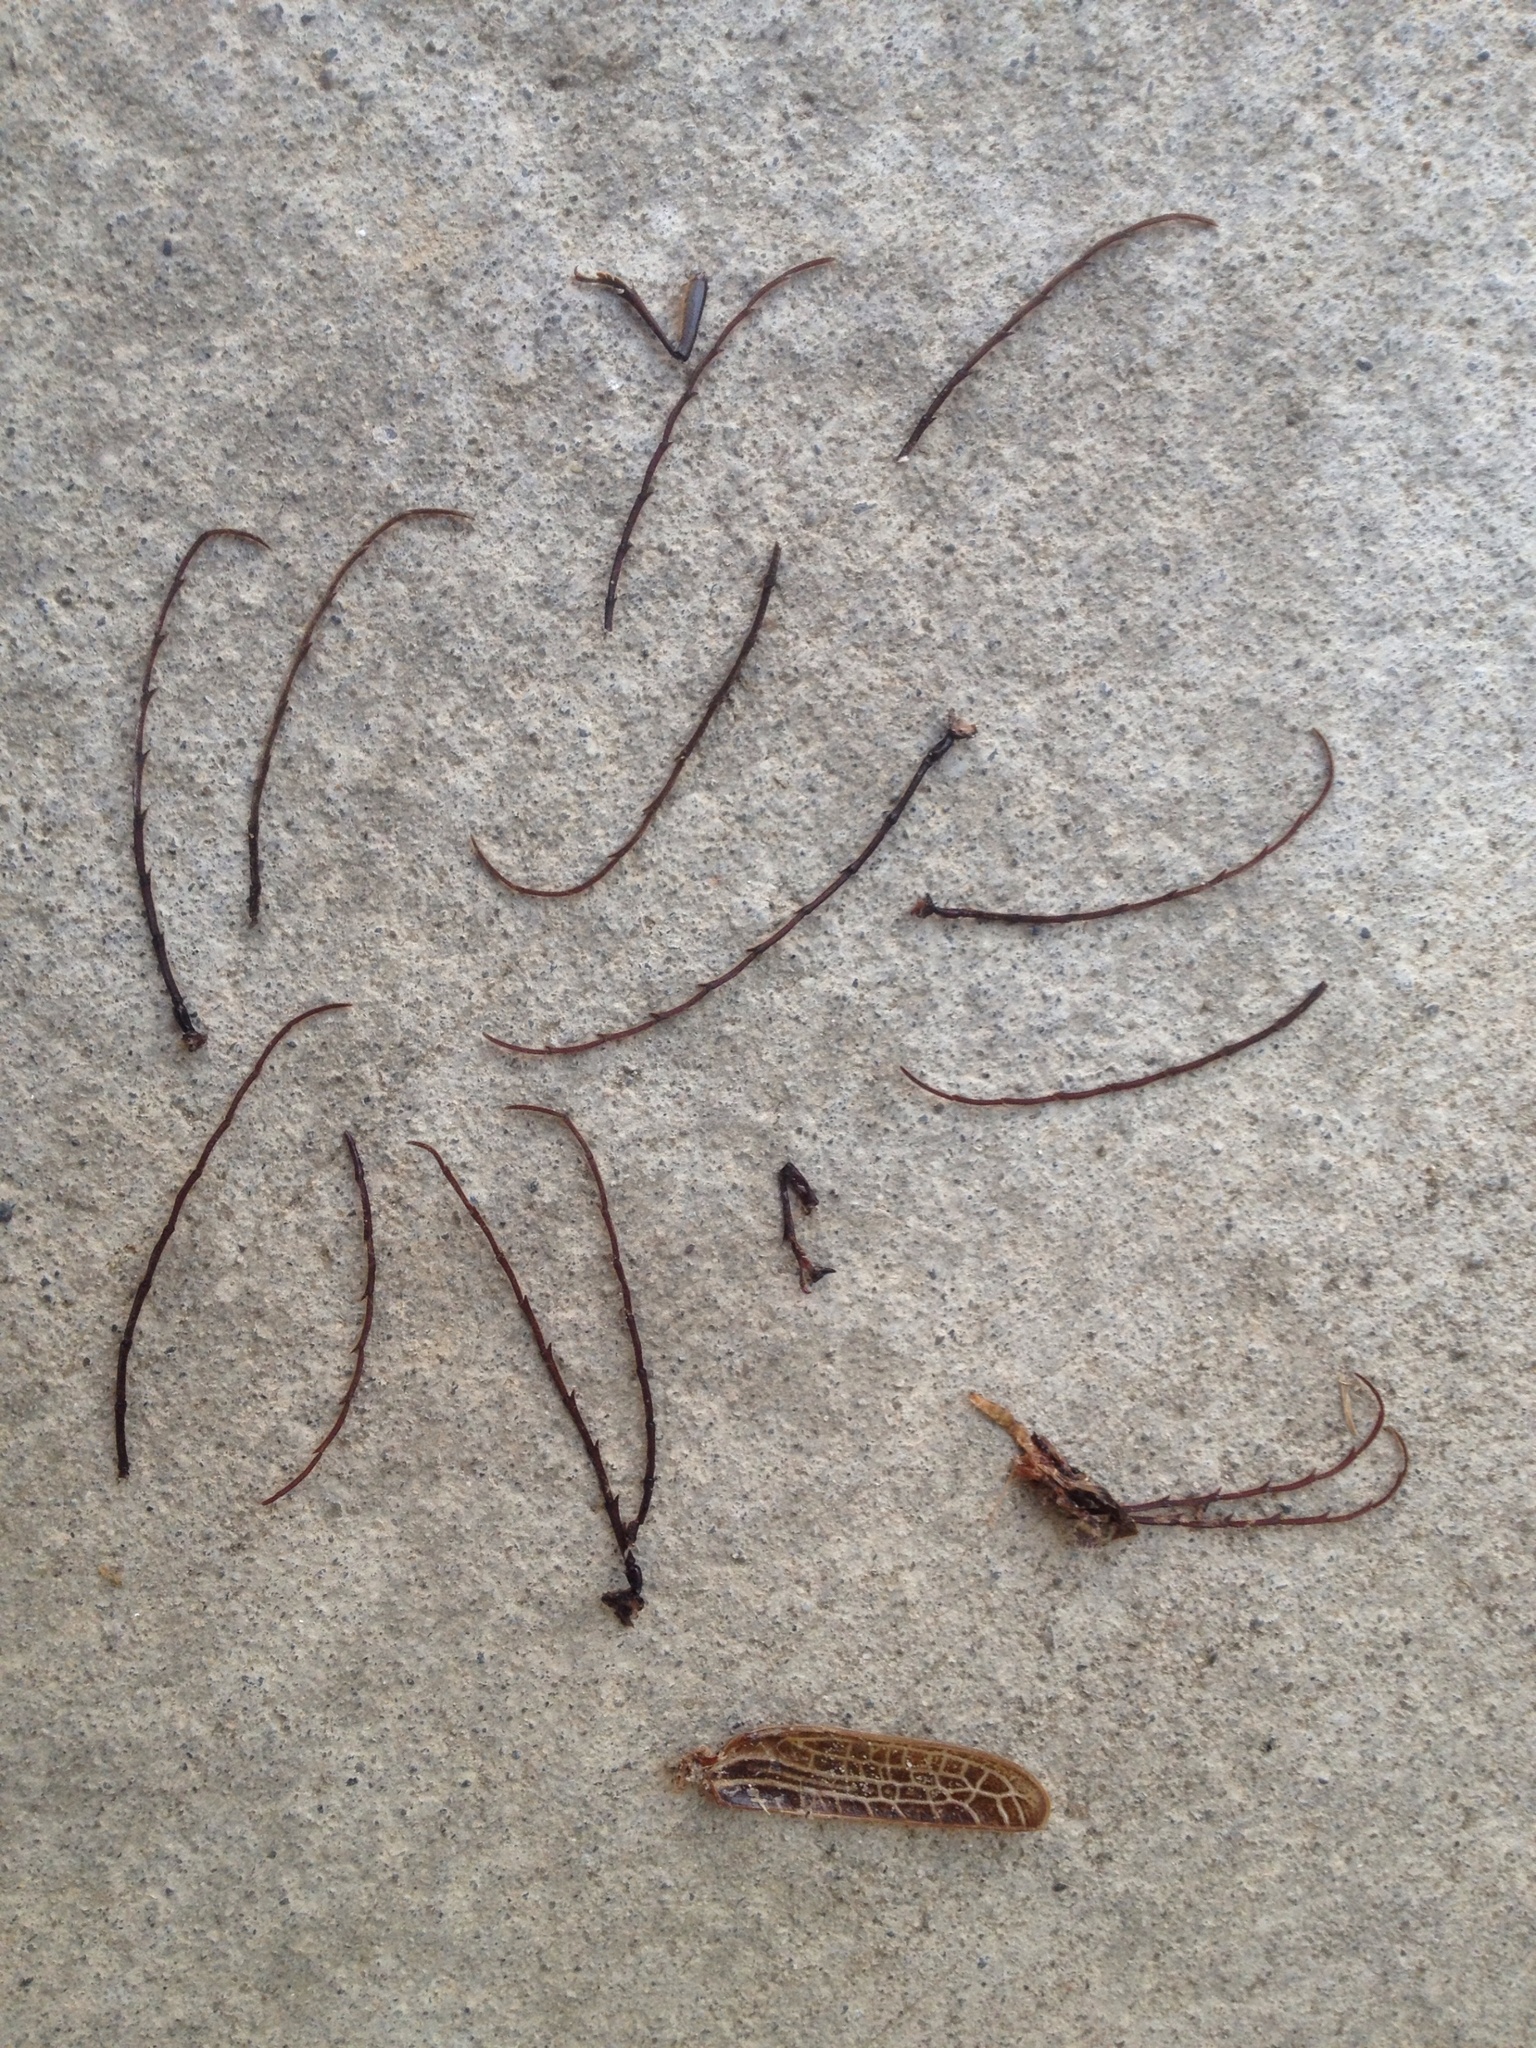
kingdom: Animalia
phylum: Arthropoda
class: Insecta
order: Coleoptera
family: Cerambycidae
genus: Prionoplus
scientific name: Prionoplus reticularis
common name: Huhu beetle
